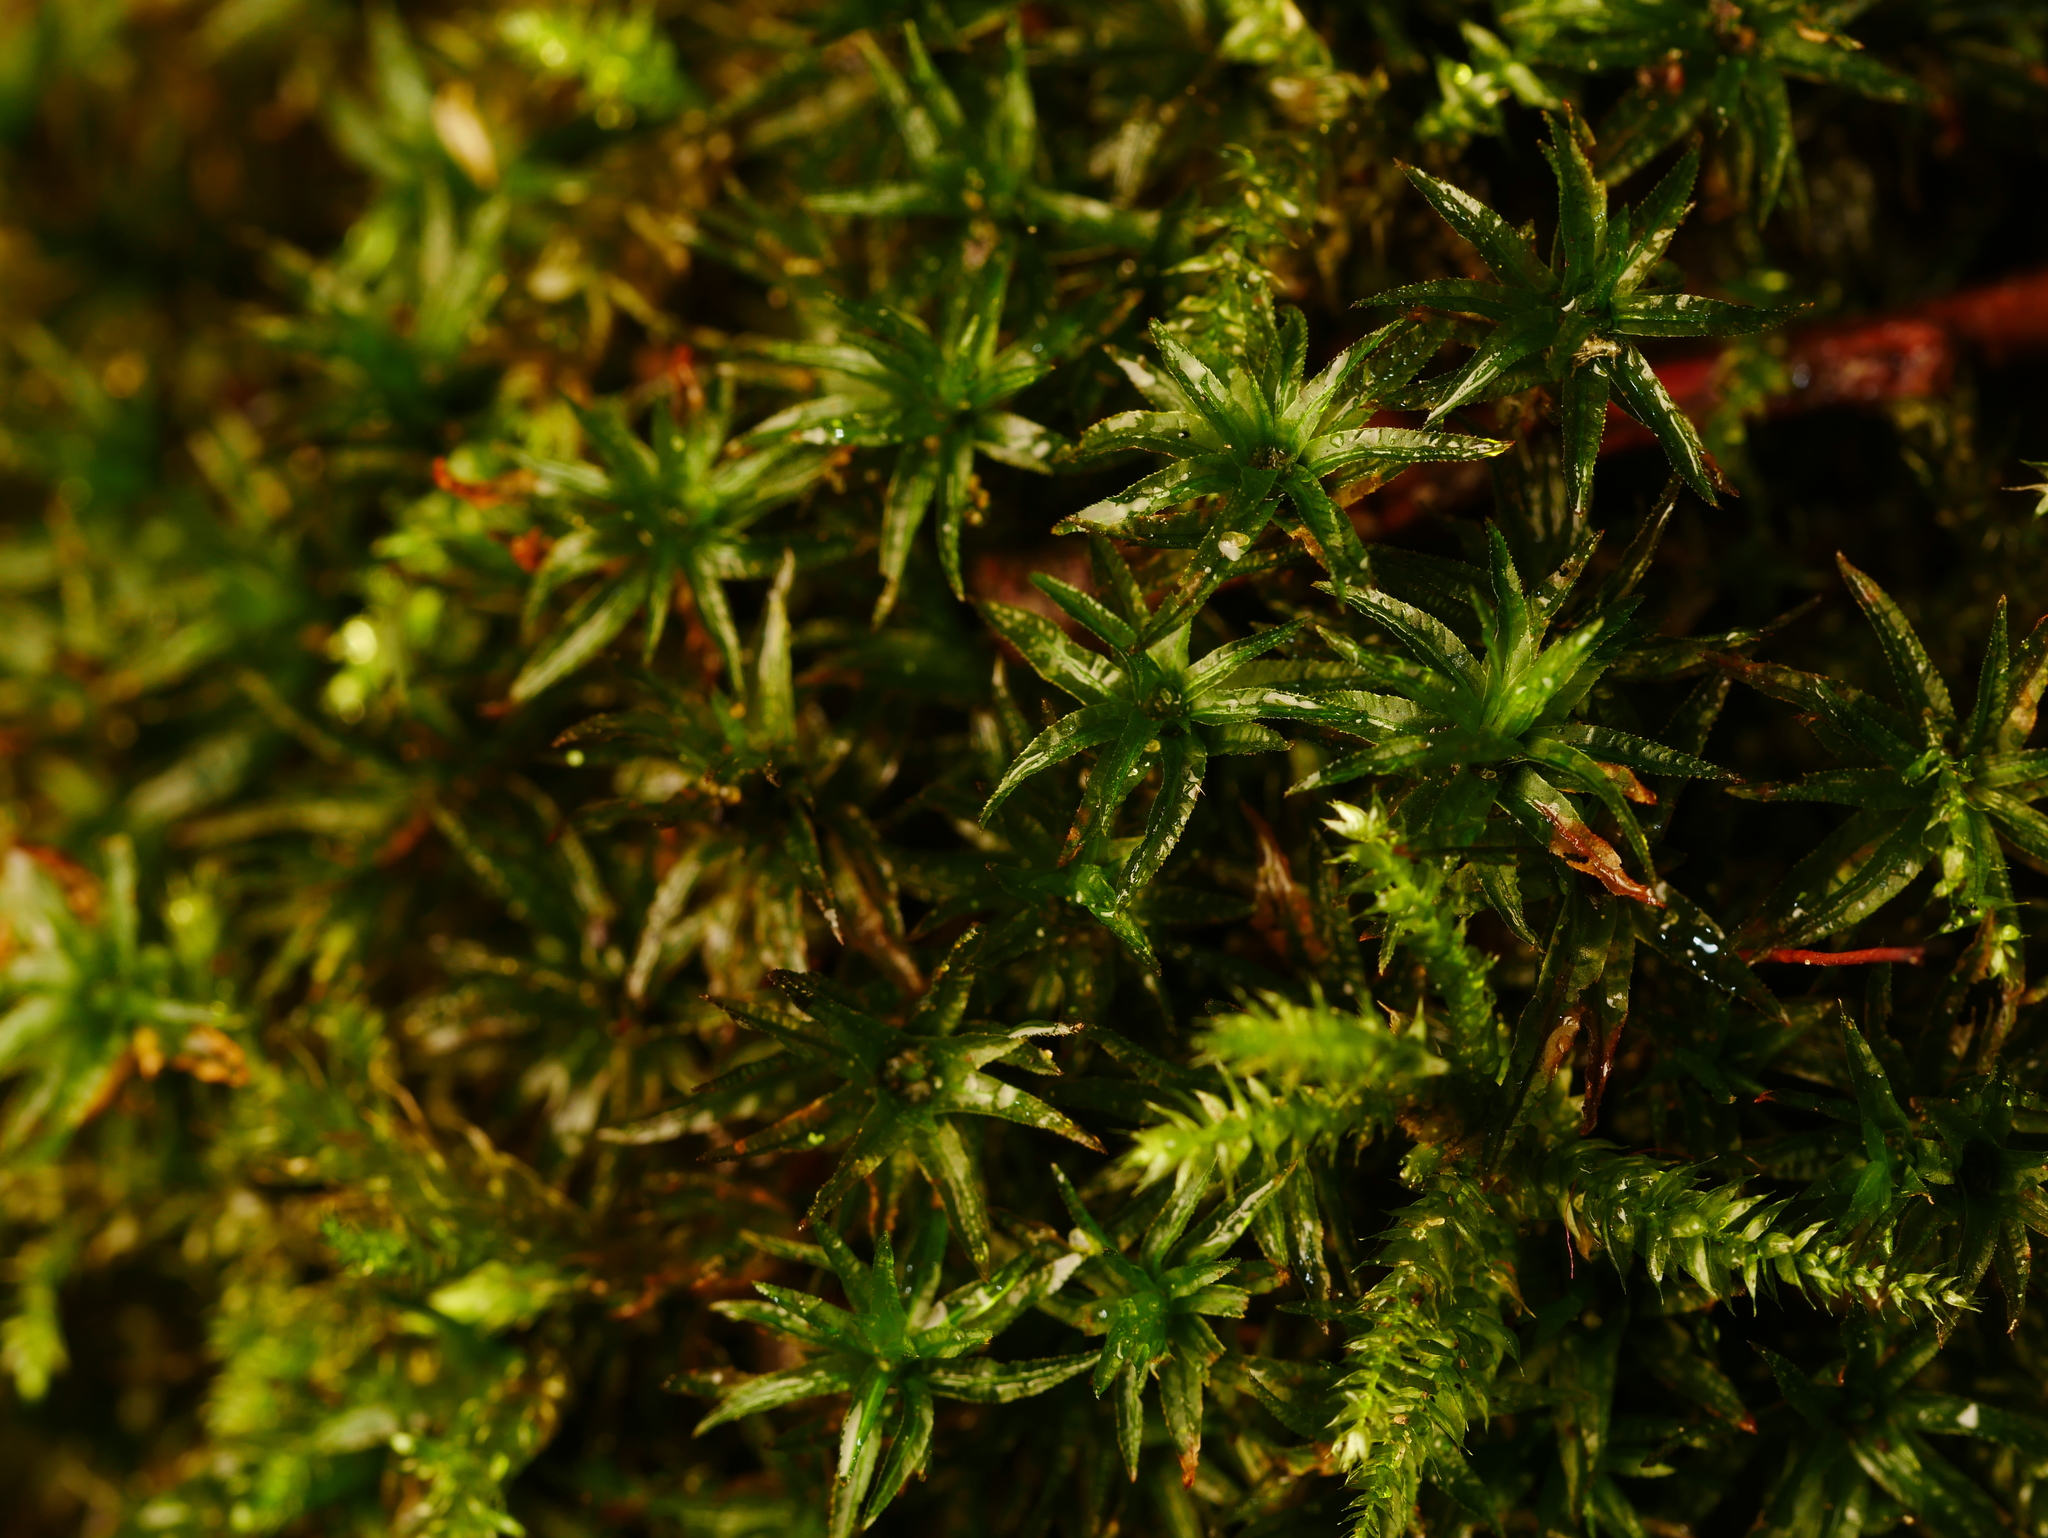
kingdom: Plantae
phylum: Bryophyta
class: Polytrichopsida
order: Polytrichales
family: Polytrichaceae
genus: Atrichum
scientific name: Atrichum undulatum
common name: Common smoothcap
